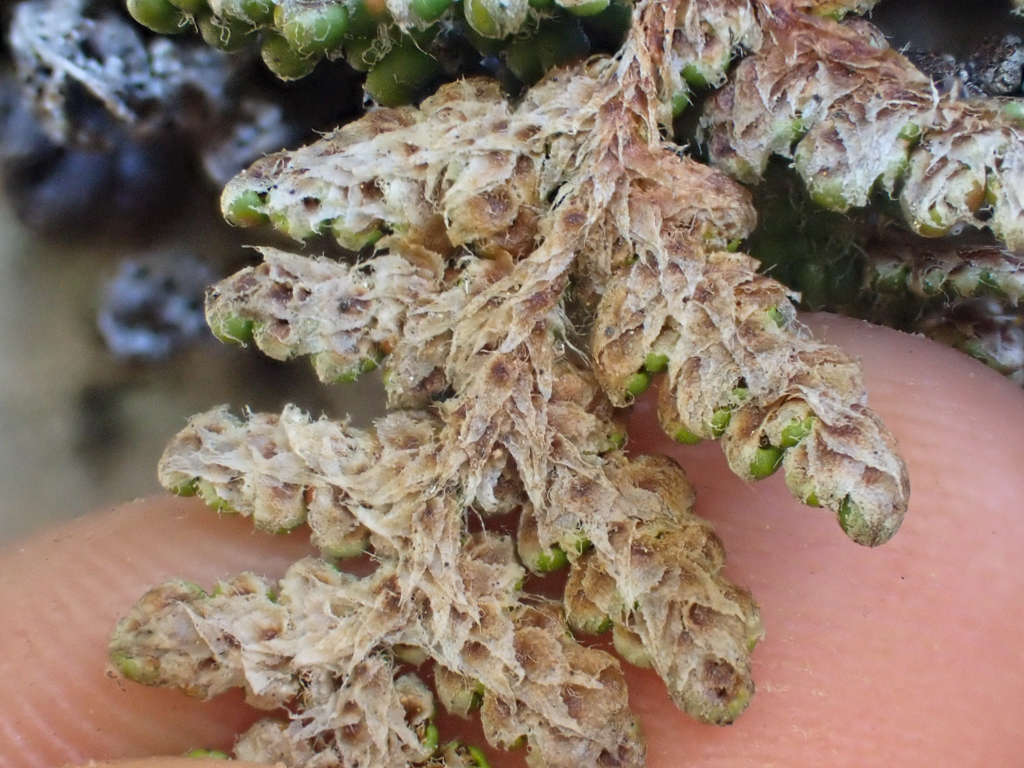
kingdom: Plantae
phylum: Tracheophyta
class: Polypodiopsida
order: Polypodiales
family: Pteridaceae
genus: Myriopteris
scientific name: Myriopteris covillei
